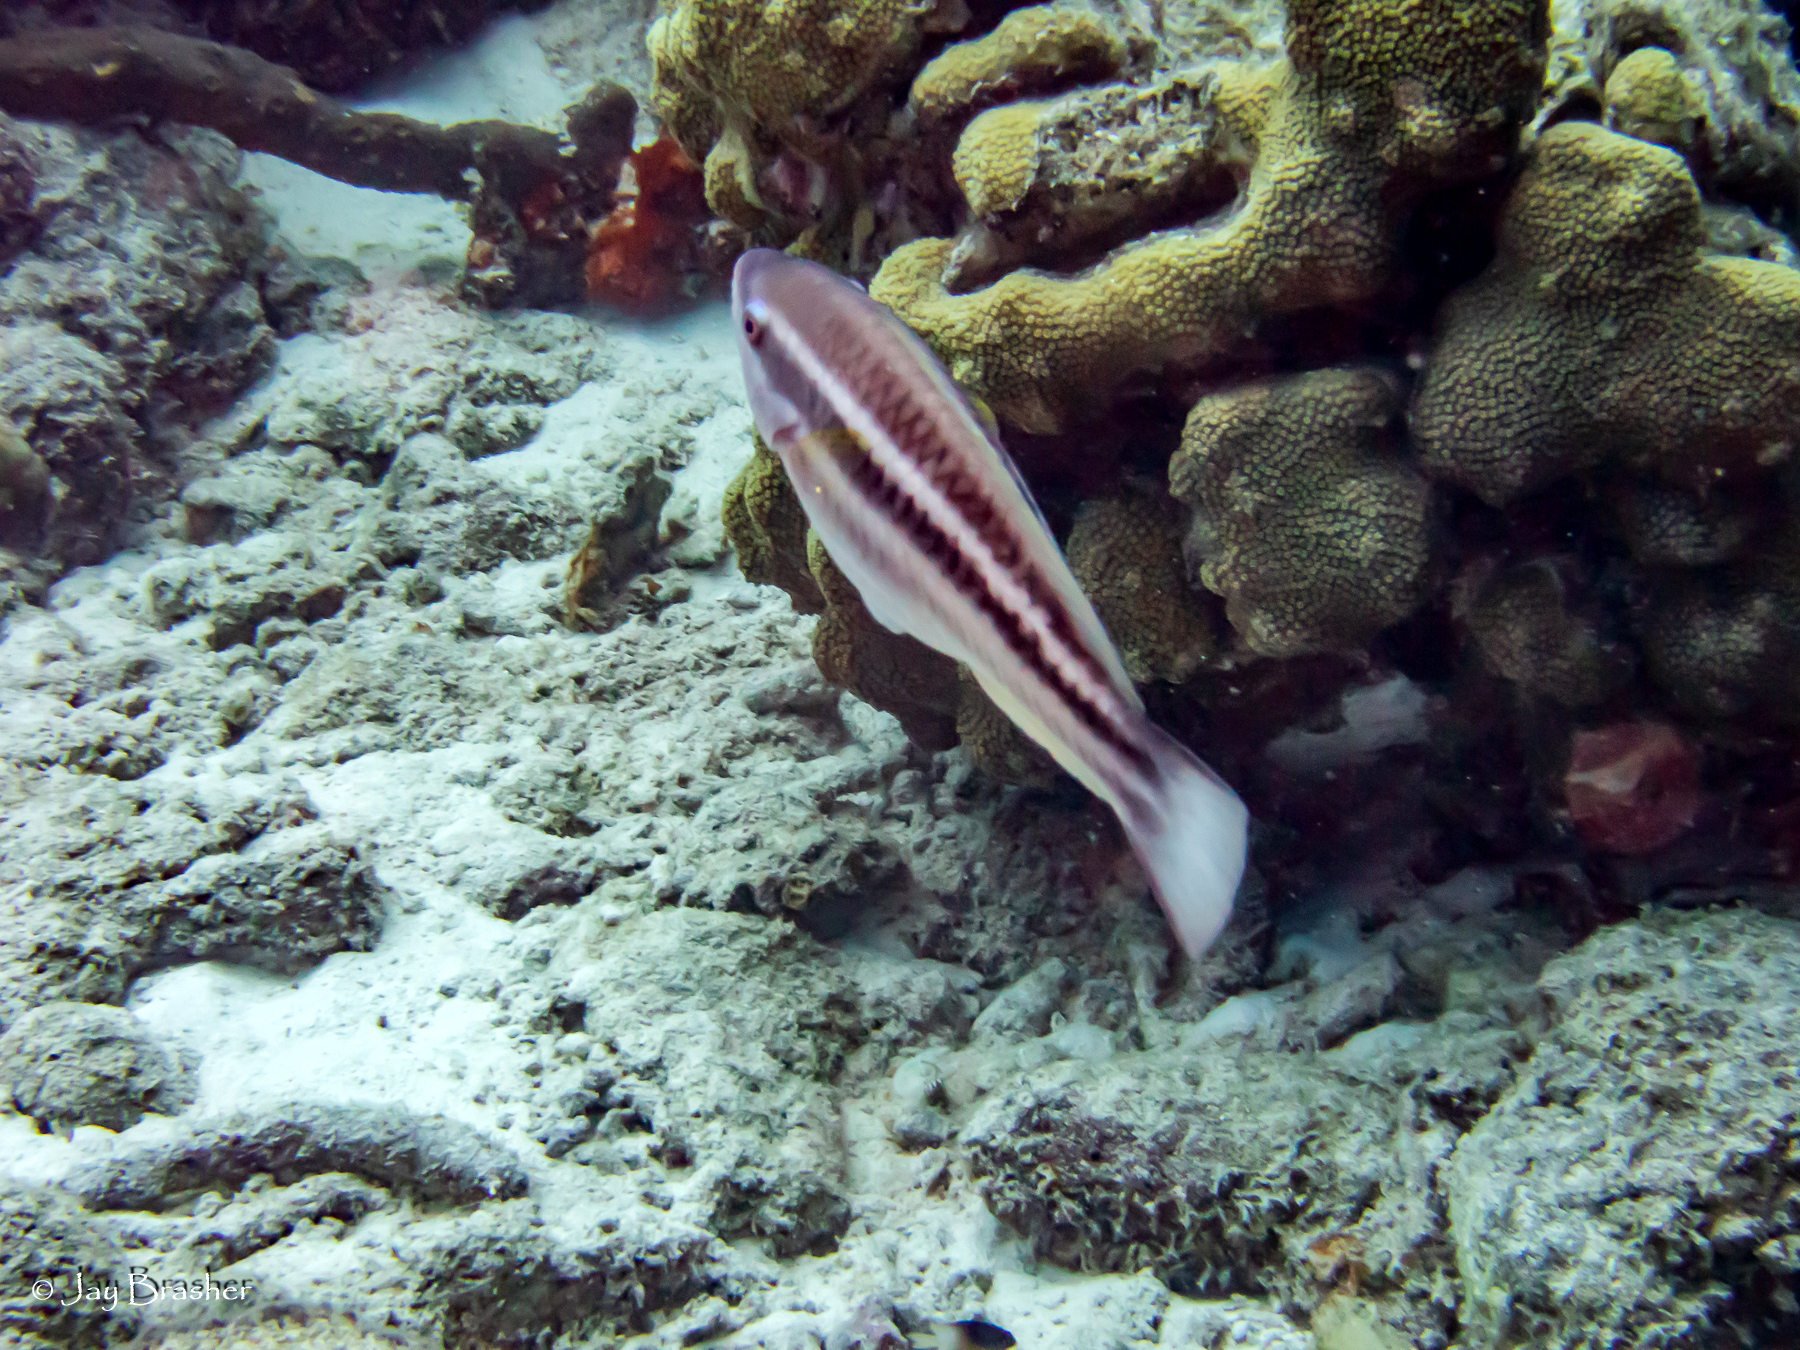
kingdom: Animalia
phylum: Chordata
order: Perciformes
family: Scaridae
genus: Scarus
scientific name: Scarus taeniopterus
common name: Princess parrotfish
